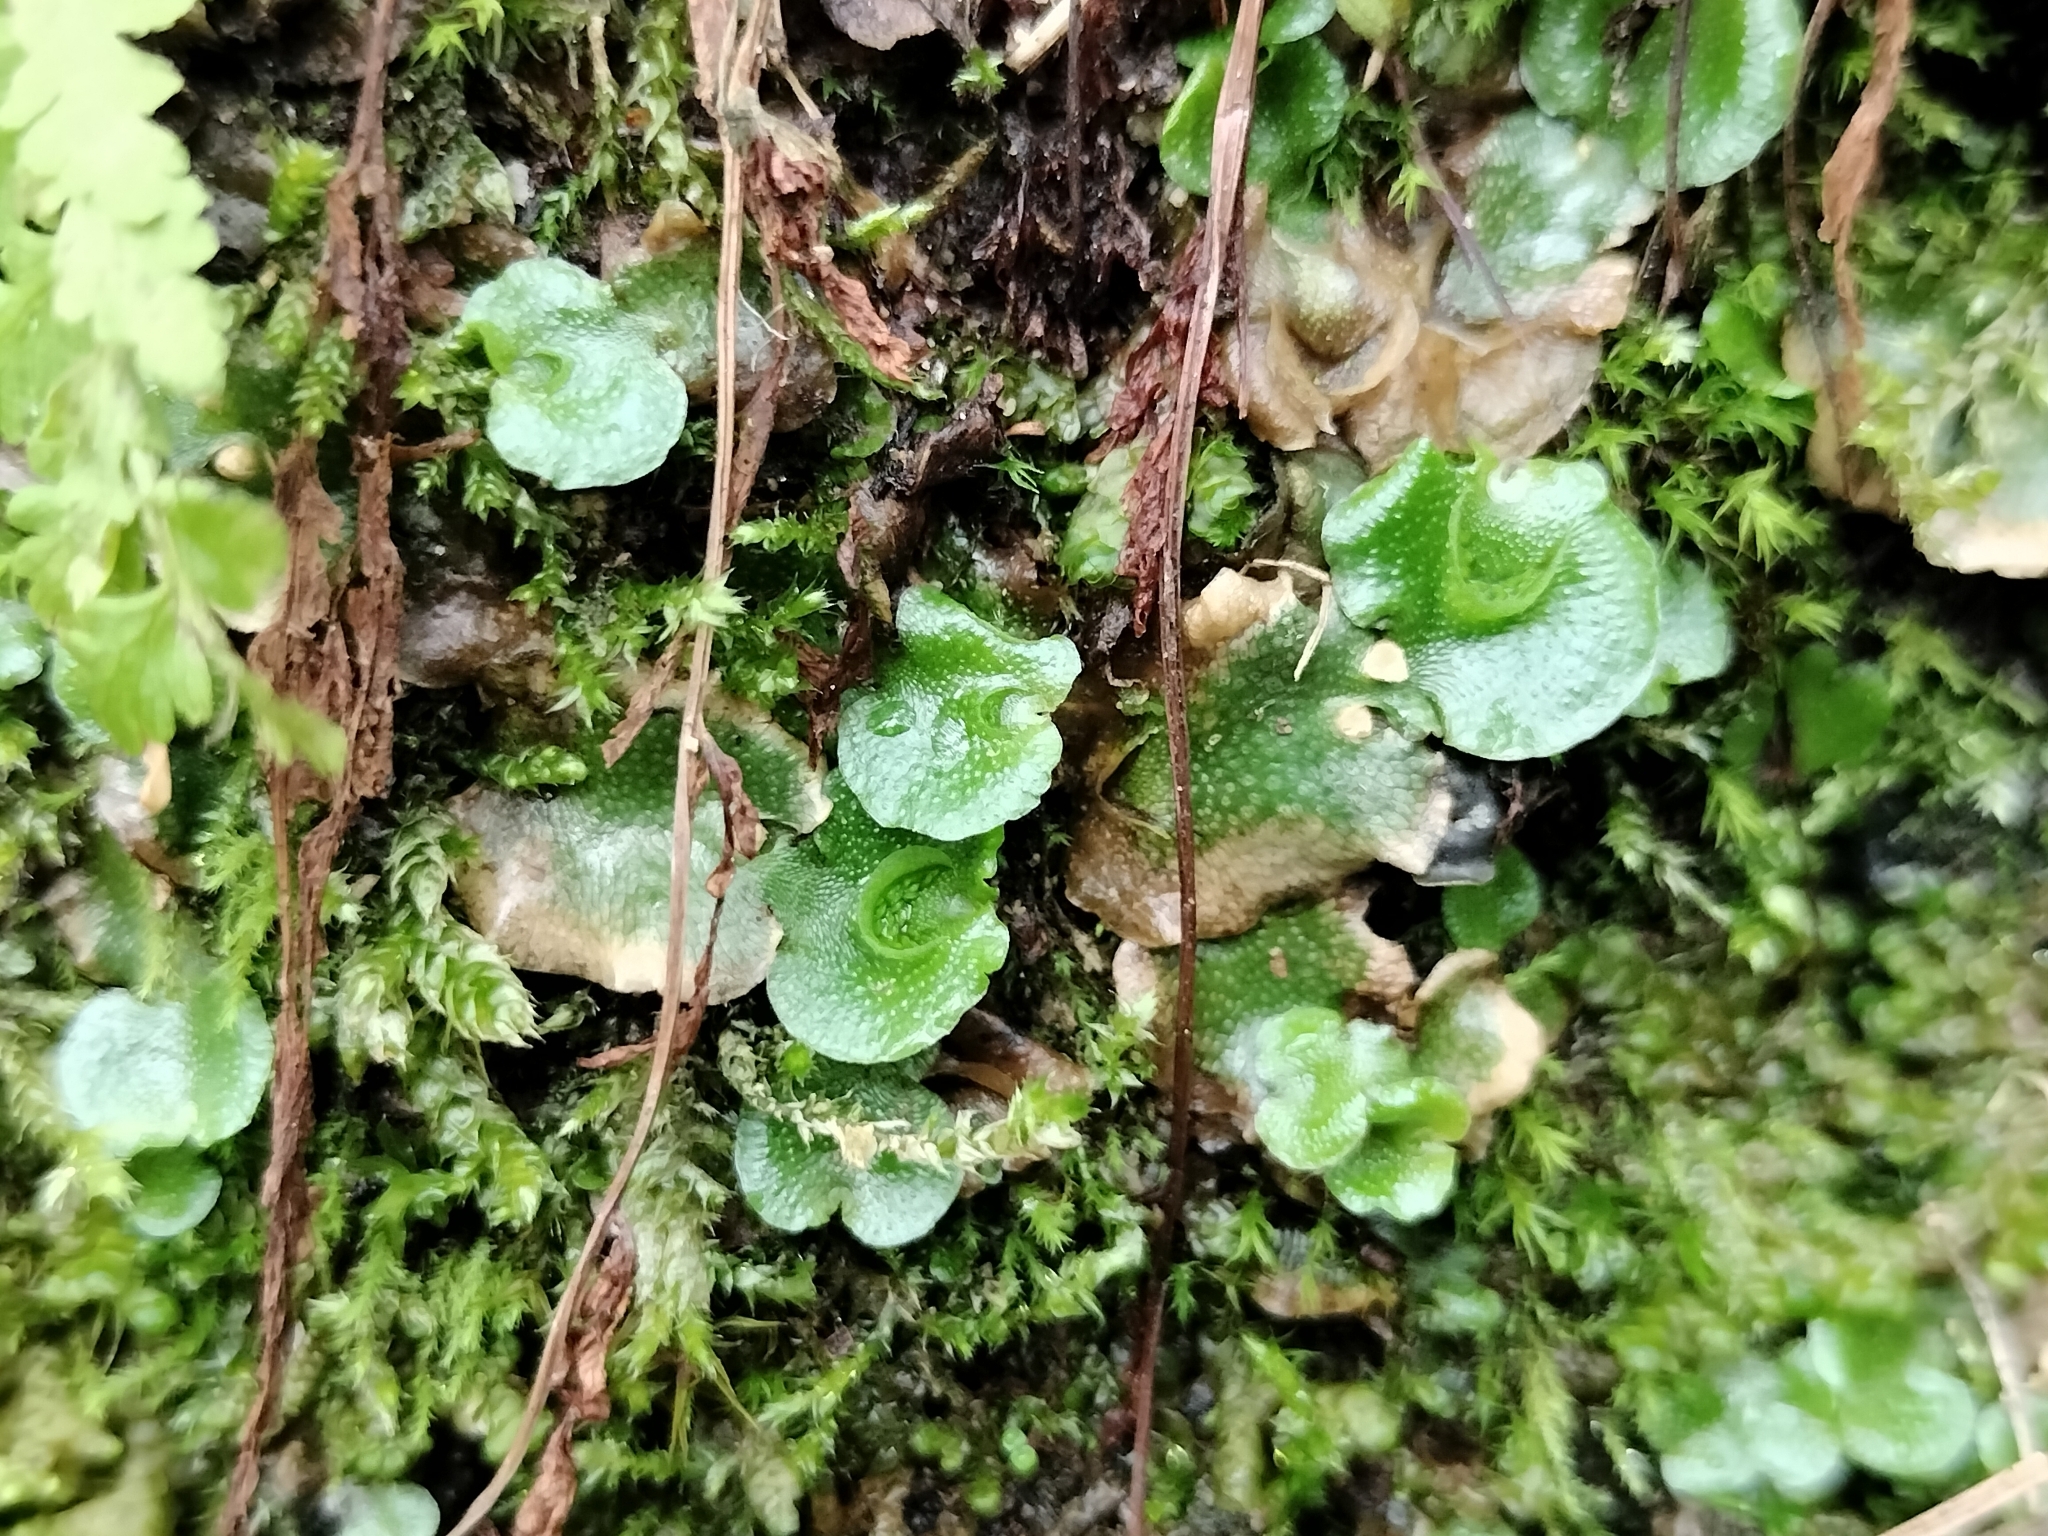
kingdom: Plantae
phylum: Marchantiophyta
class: Marchantiopsida
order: Lunulariales
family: Lunulariaceae
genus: Lunularia
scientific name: Lunularia cruciata
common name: Crescent-cup liverwort
